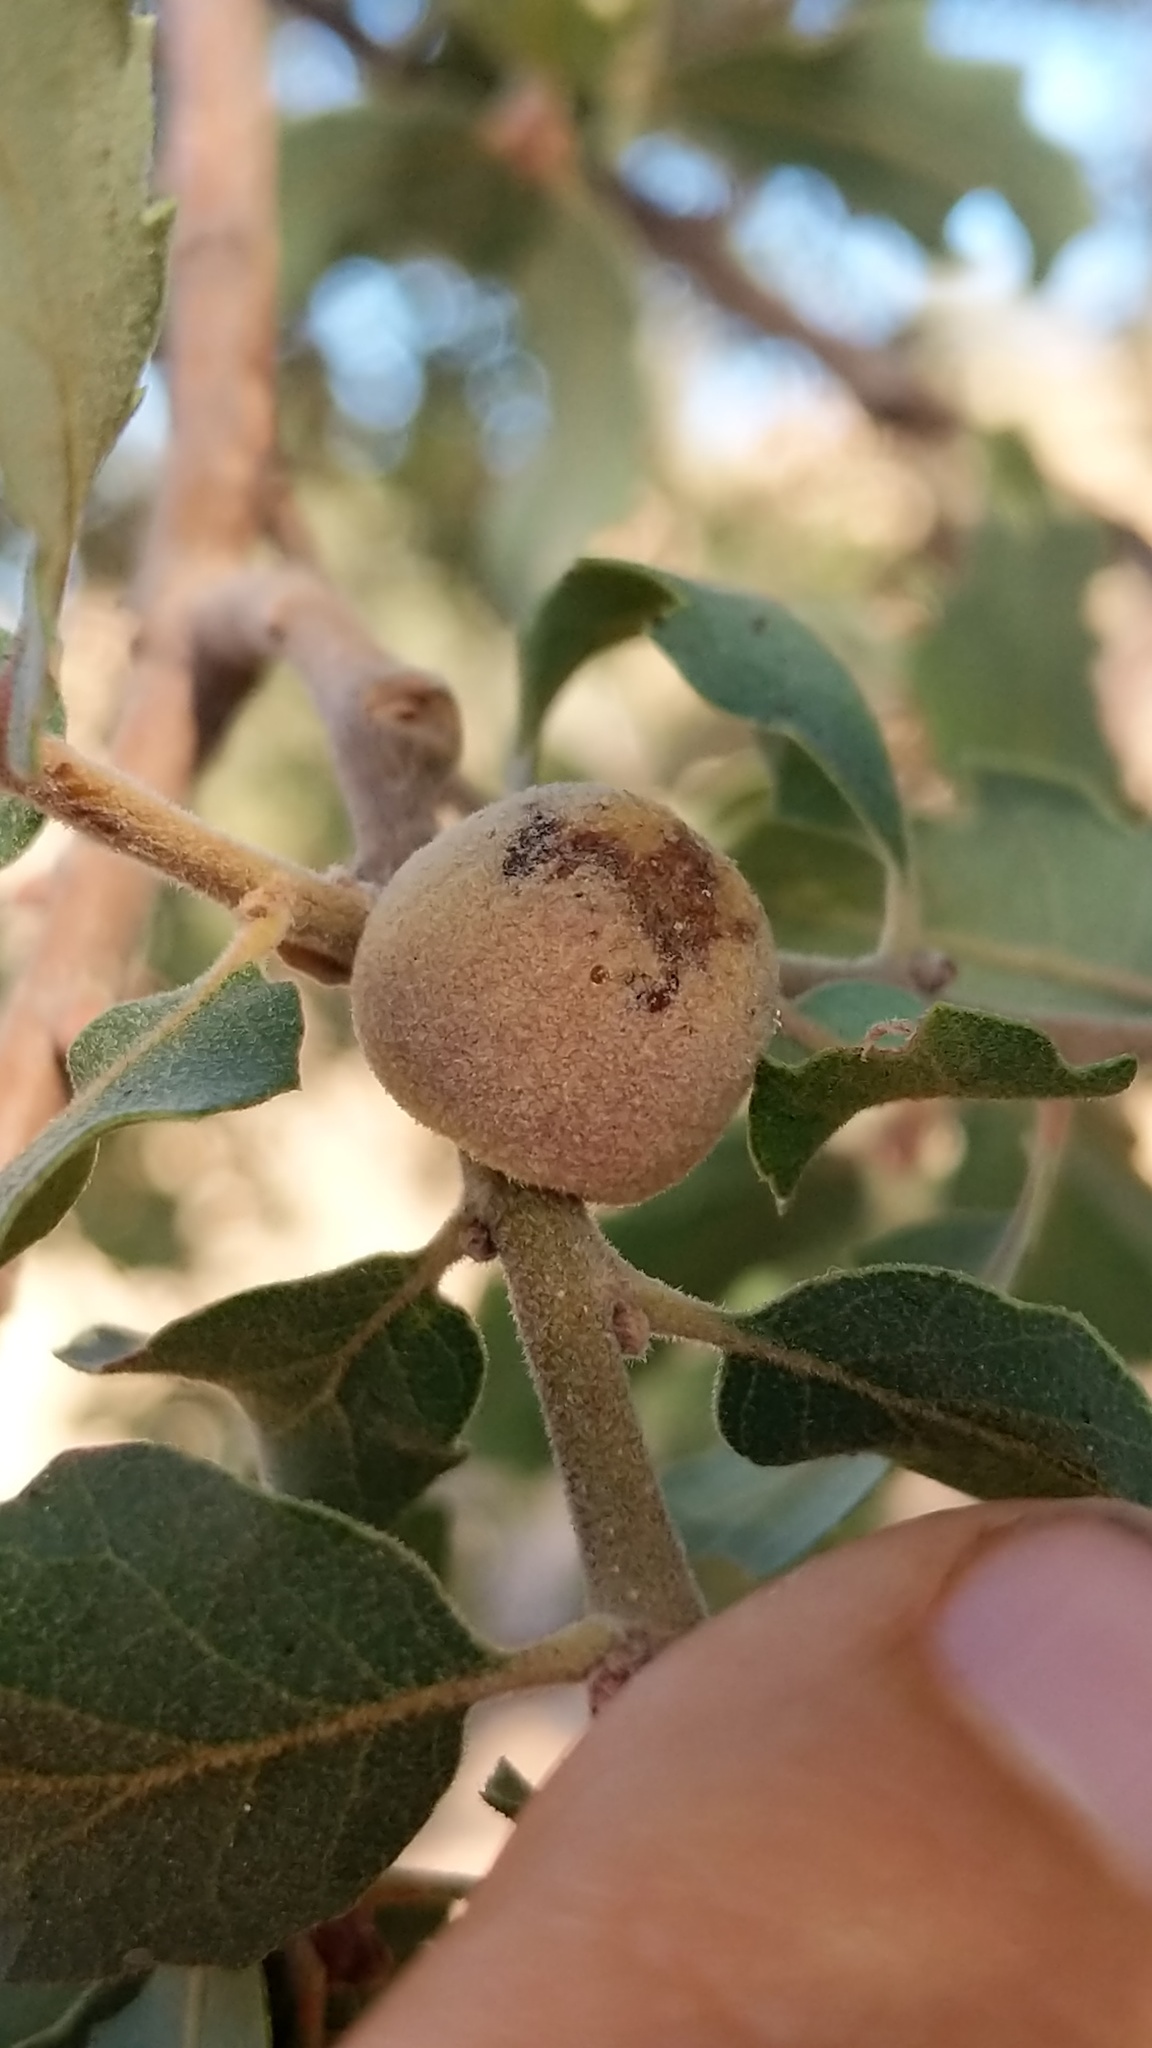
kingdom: Animalia
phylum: Arthropoda
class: Insecta
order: Hymenoptera
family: Cynipidae
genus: Disholcaspis
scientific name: Disholcaspis
